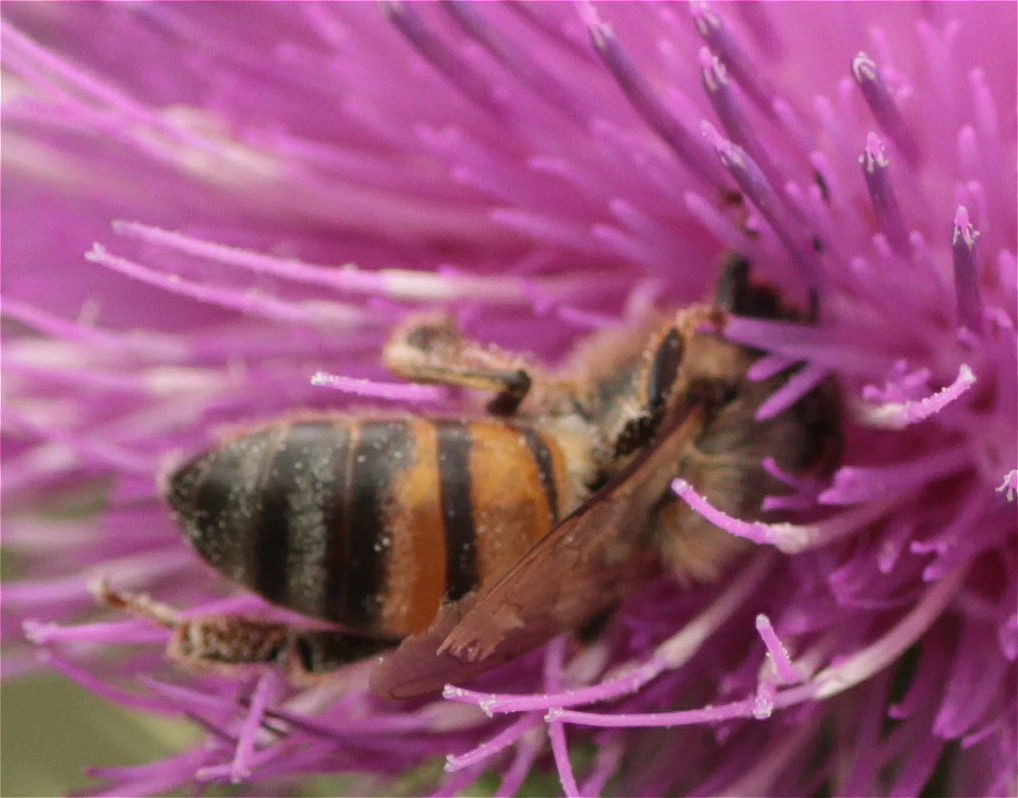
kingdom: Animalia
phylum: Arthropoda
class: Insecta
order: Hymenoptera
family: Apidae
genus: Apis
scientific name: Apis mellifera
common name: Honey bee
